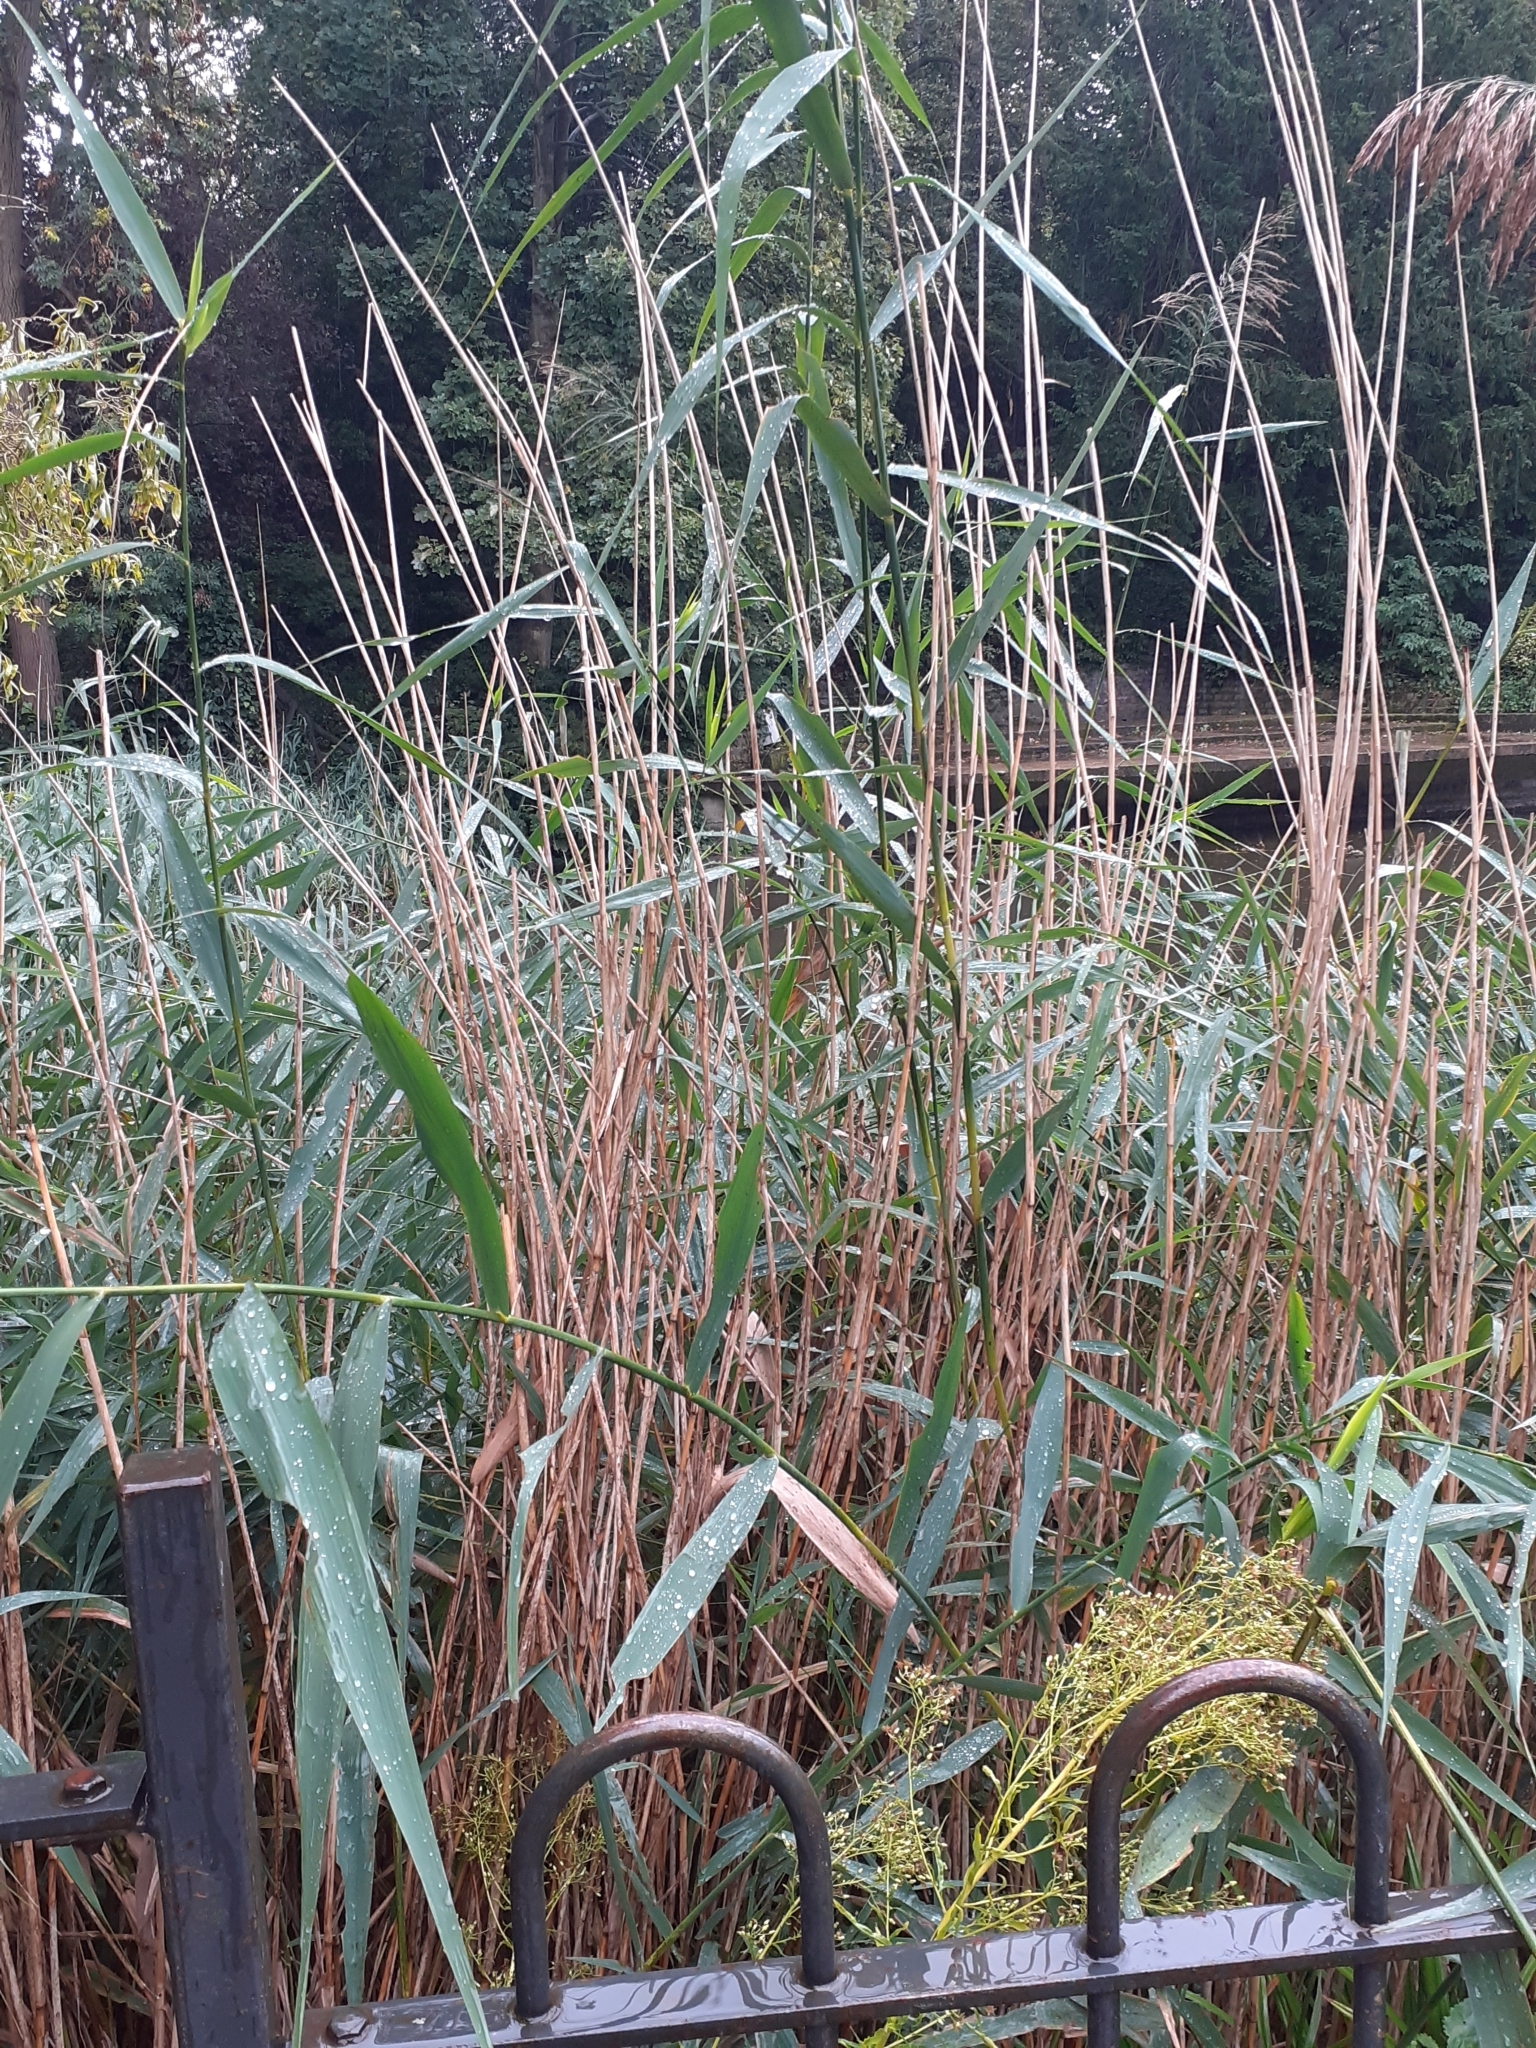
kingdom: Plantae
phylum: Tracheophyta
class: Liliopsida
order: Poales
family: Poaceae
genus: Phragmites
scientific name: Phragmites australis
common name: Common reed
